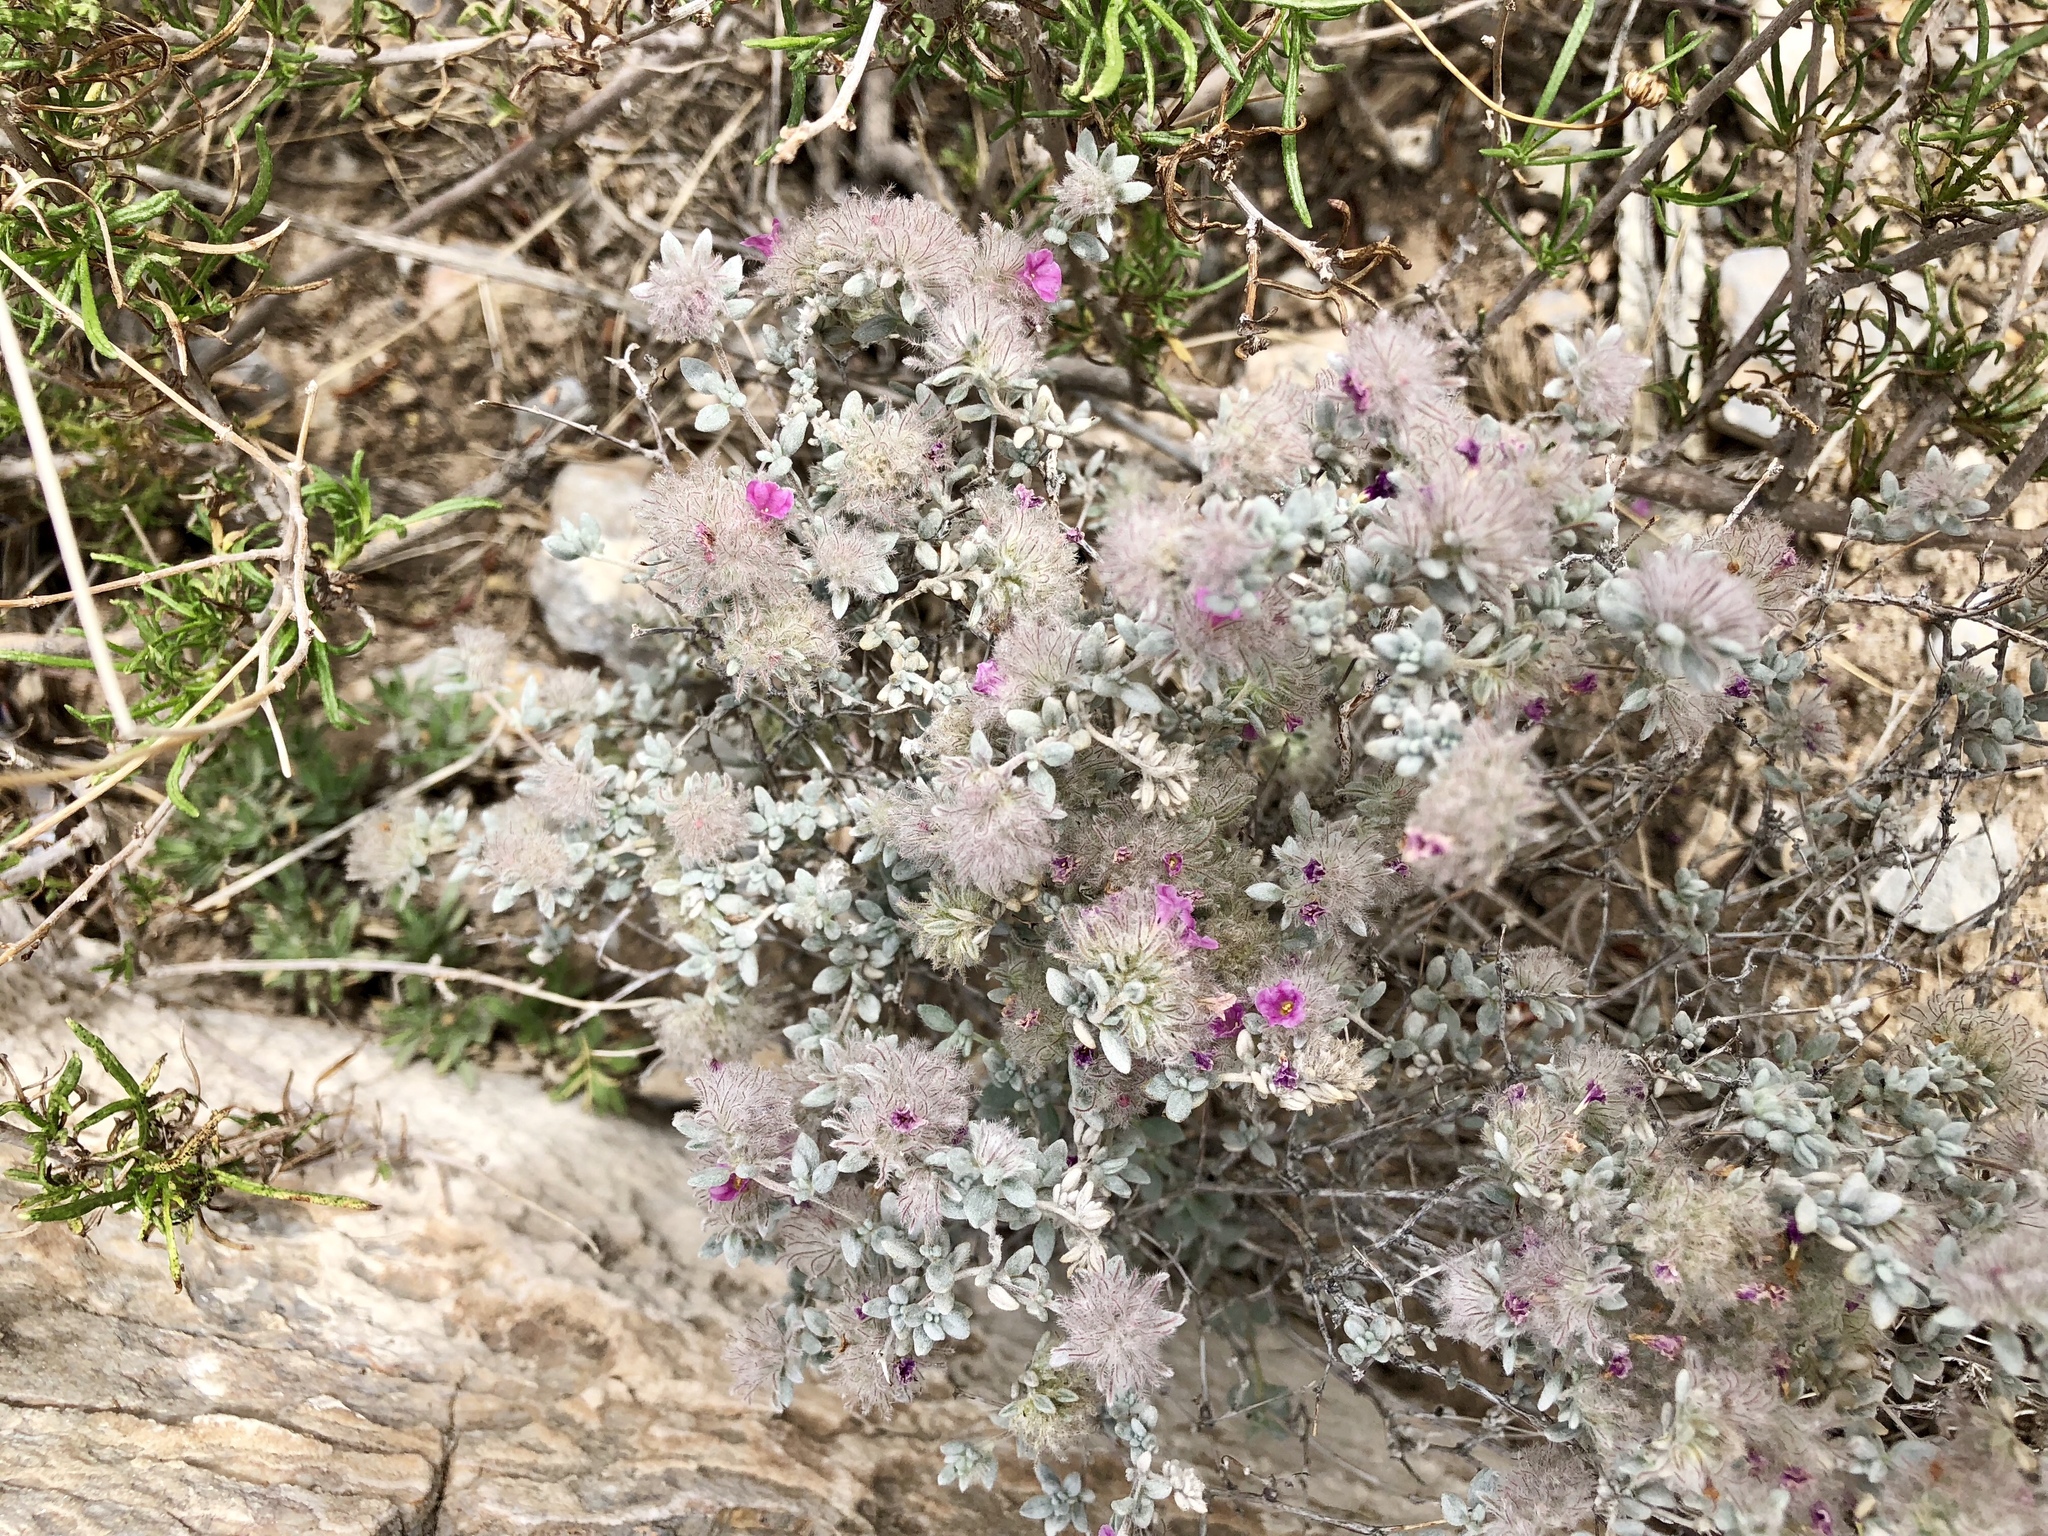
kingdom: Plantae
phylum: Tracheophyta
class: Magnoliopsida
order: Boraginales
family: Ehretiaceae
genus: Tiquilia
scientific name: Tiquilia greggii
